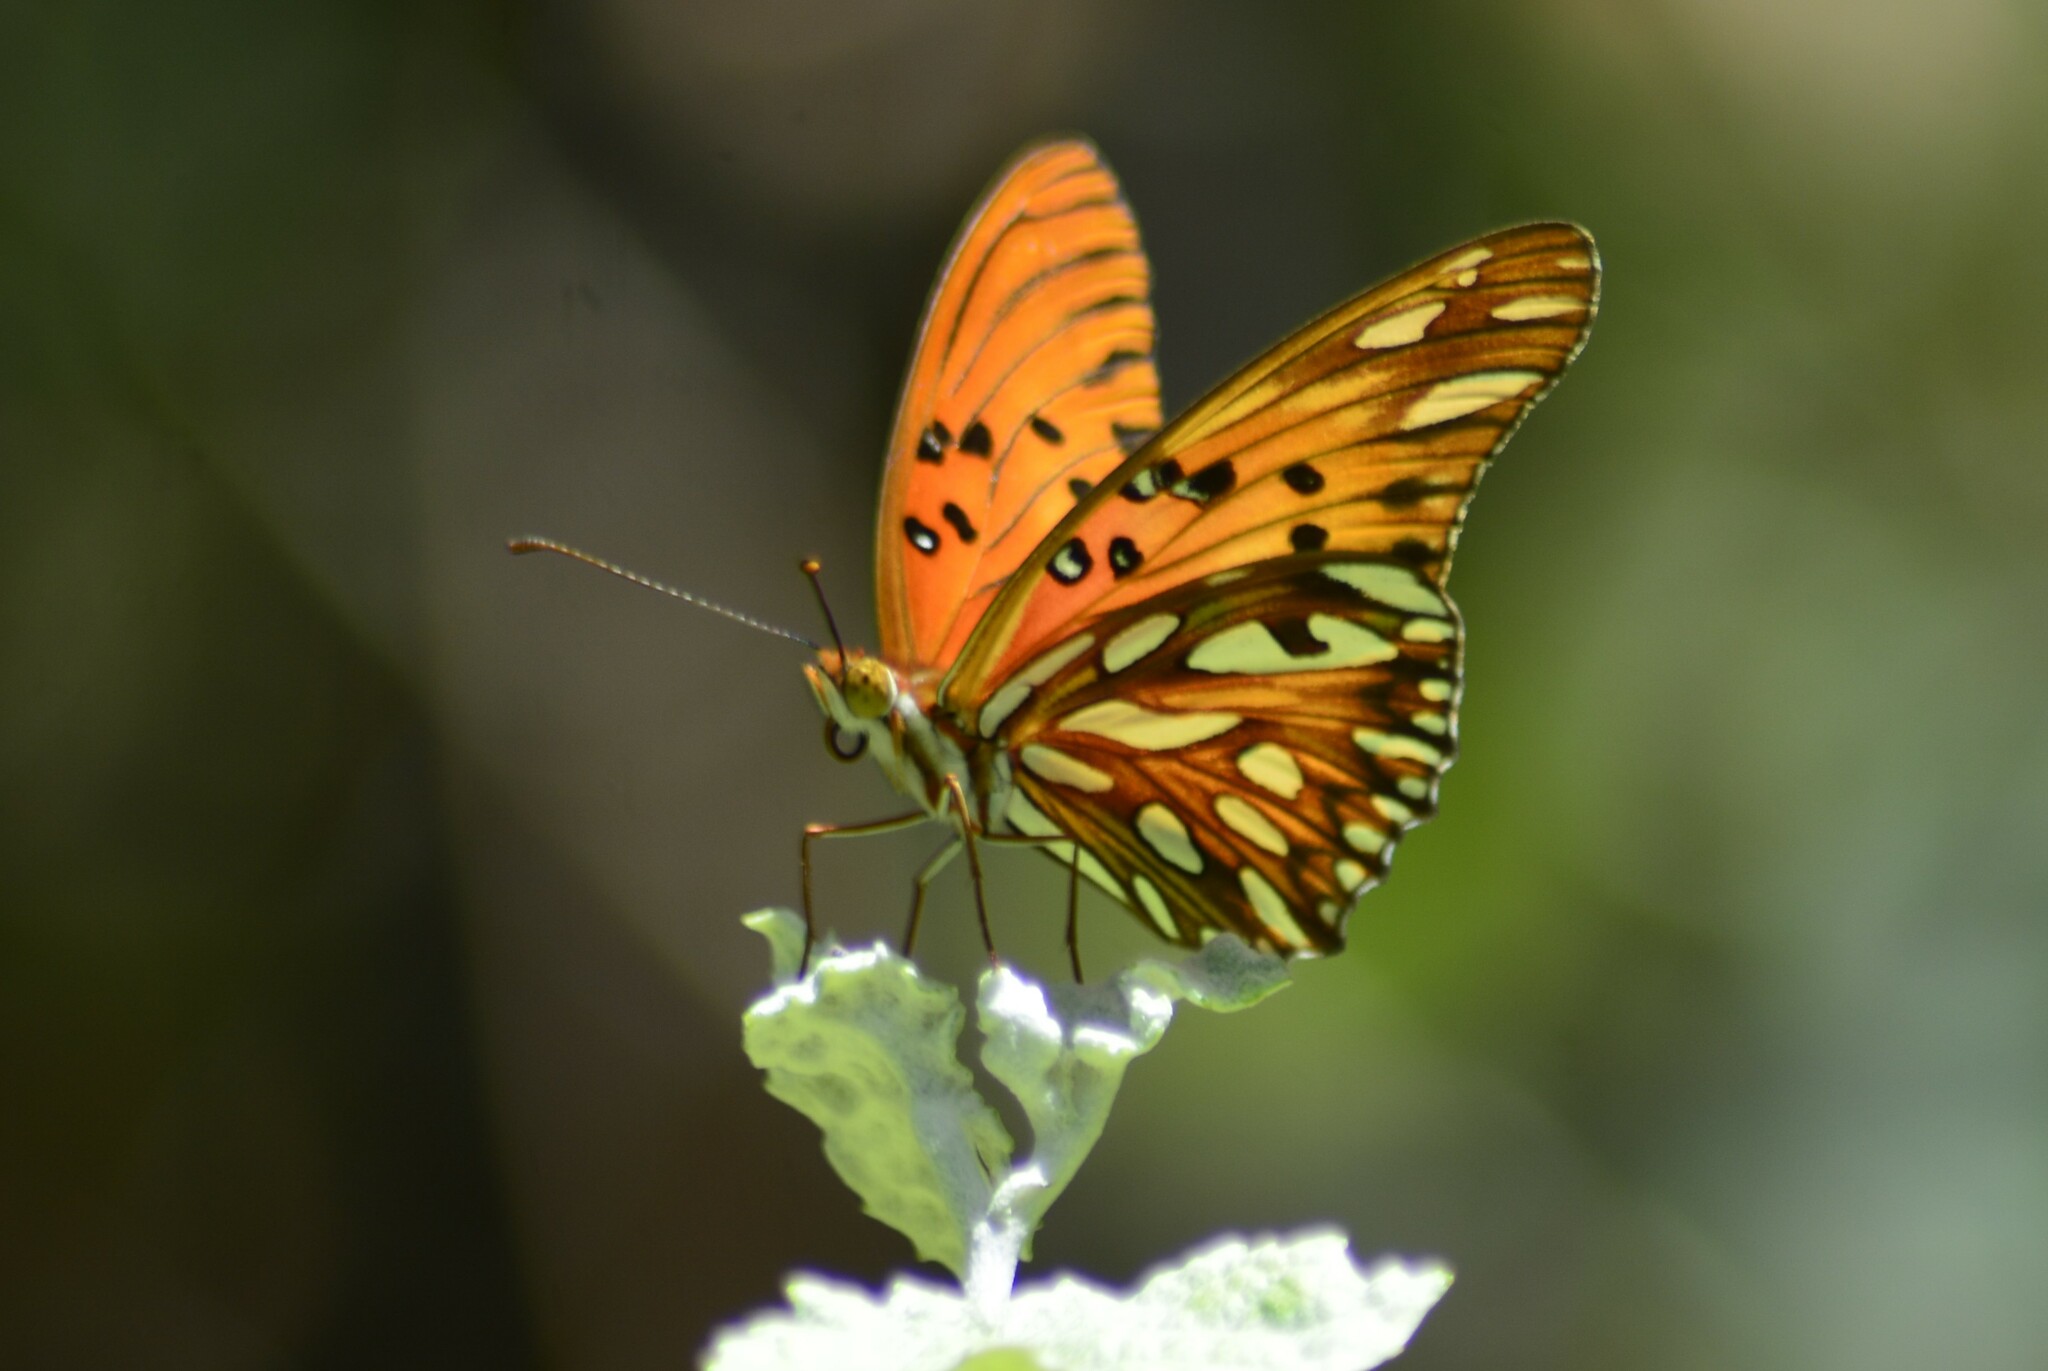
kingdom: Animalia
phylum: Arthropoda
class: Insecta
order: Lepidoptera
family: Nymphalidae
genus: Dione
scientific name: Dione vanillae
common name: Gulf fritillary
